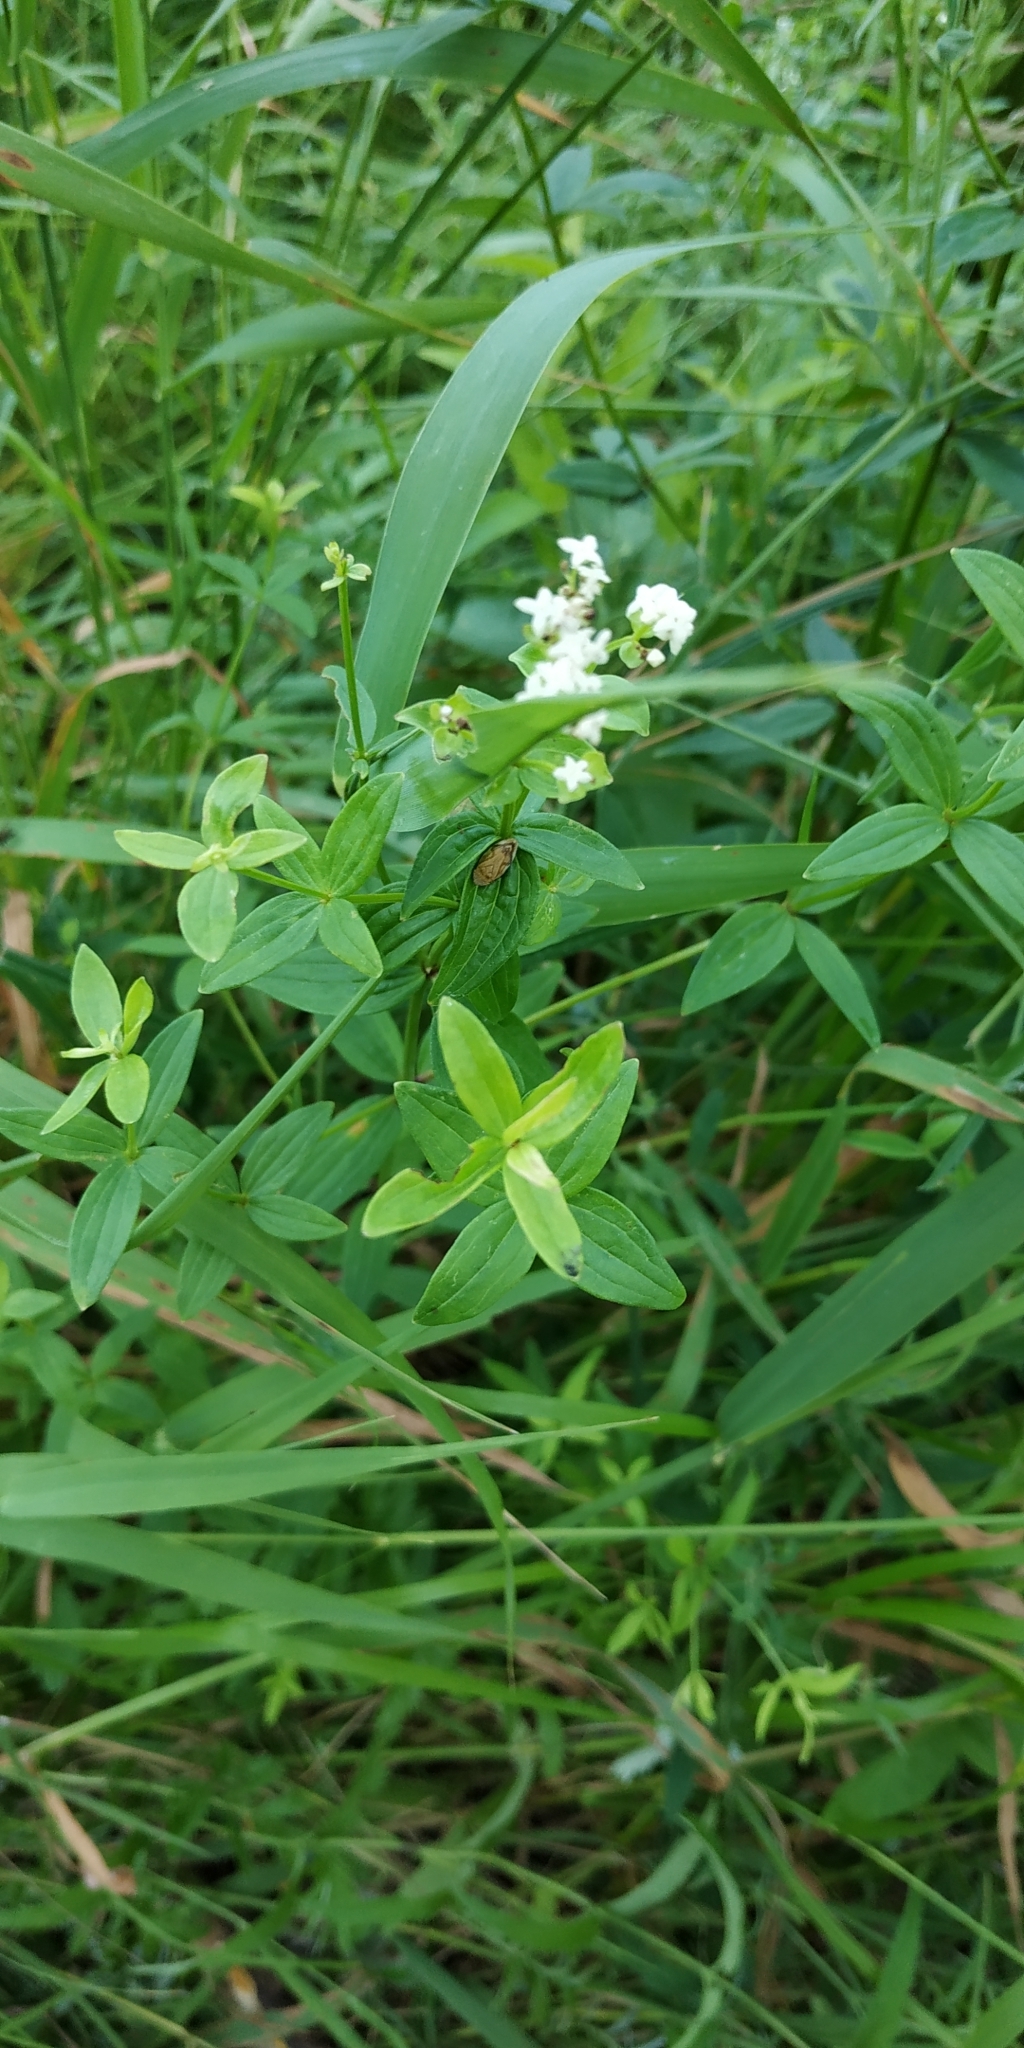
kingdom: Plantae
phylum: Tracheophyta
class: Magnoliopsida
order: Gentianales
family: Rubiaceae
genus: Galium
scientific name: Galium rubioides
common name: European bedstraw
